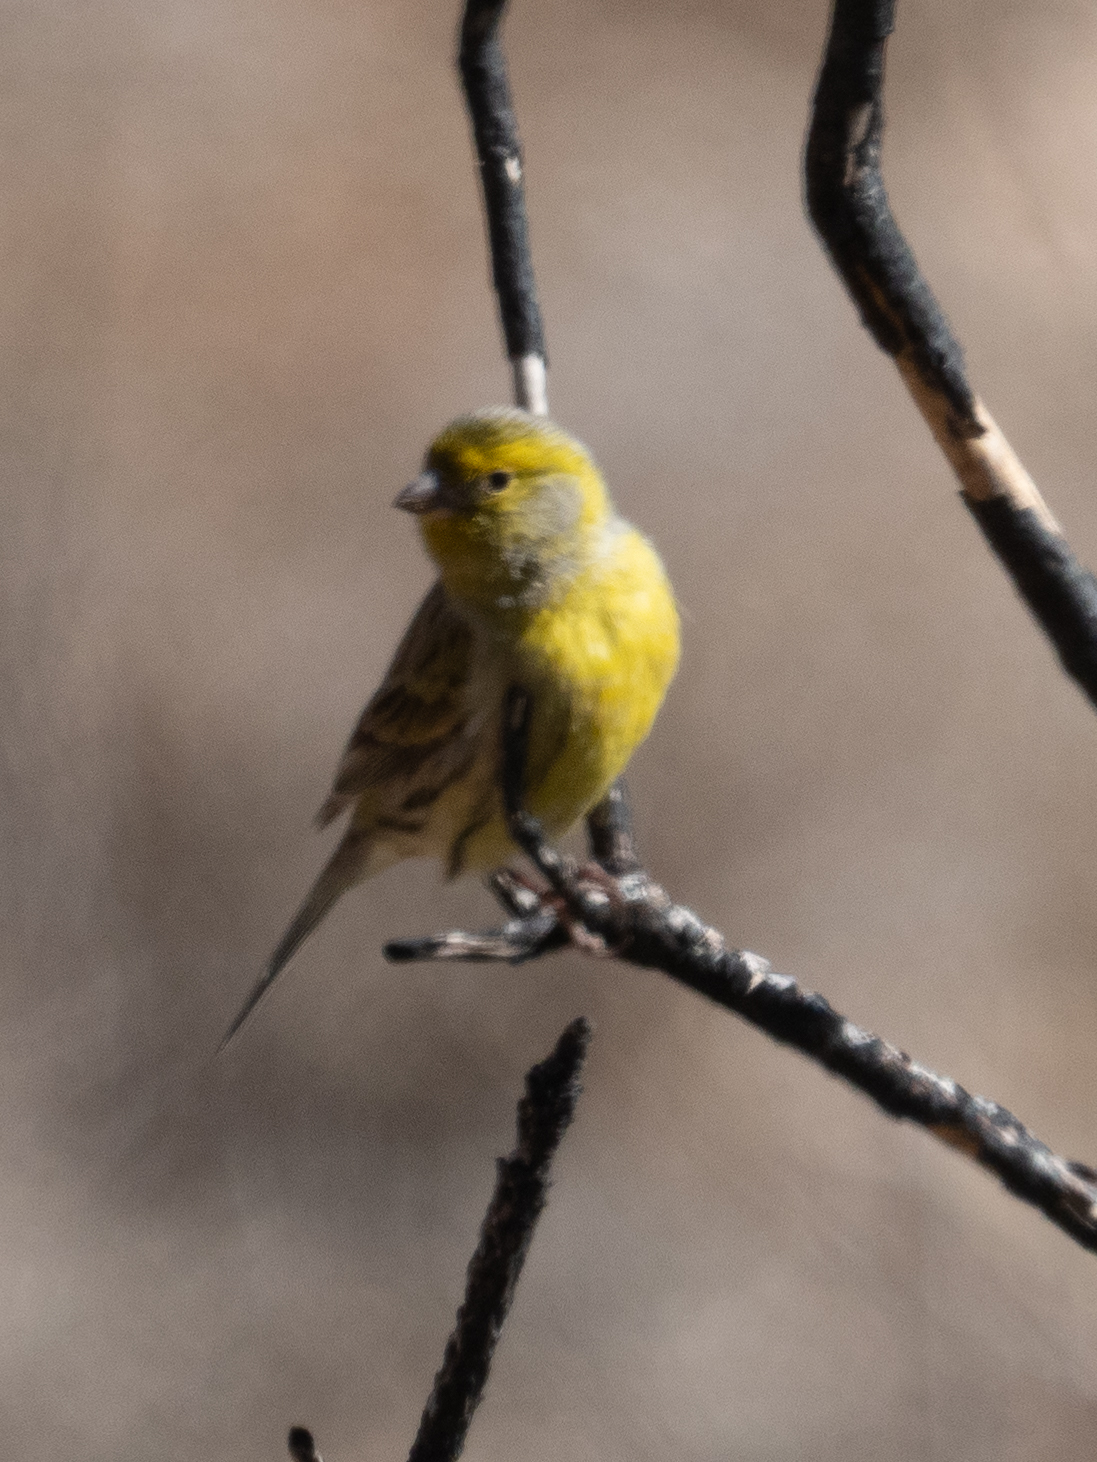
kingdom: Animalia
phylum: Chordata
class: Aves
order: Passeriformes
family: Fringillidae
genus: Serinus
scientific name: Serinus canaria
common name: Atlantic canary
